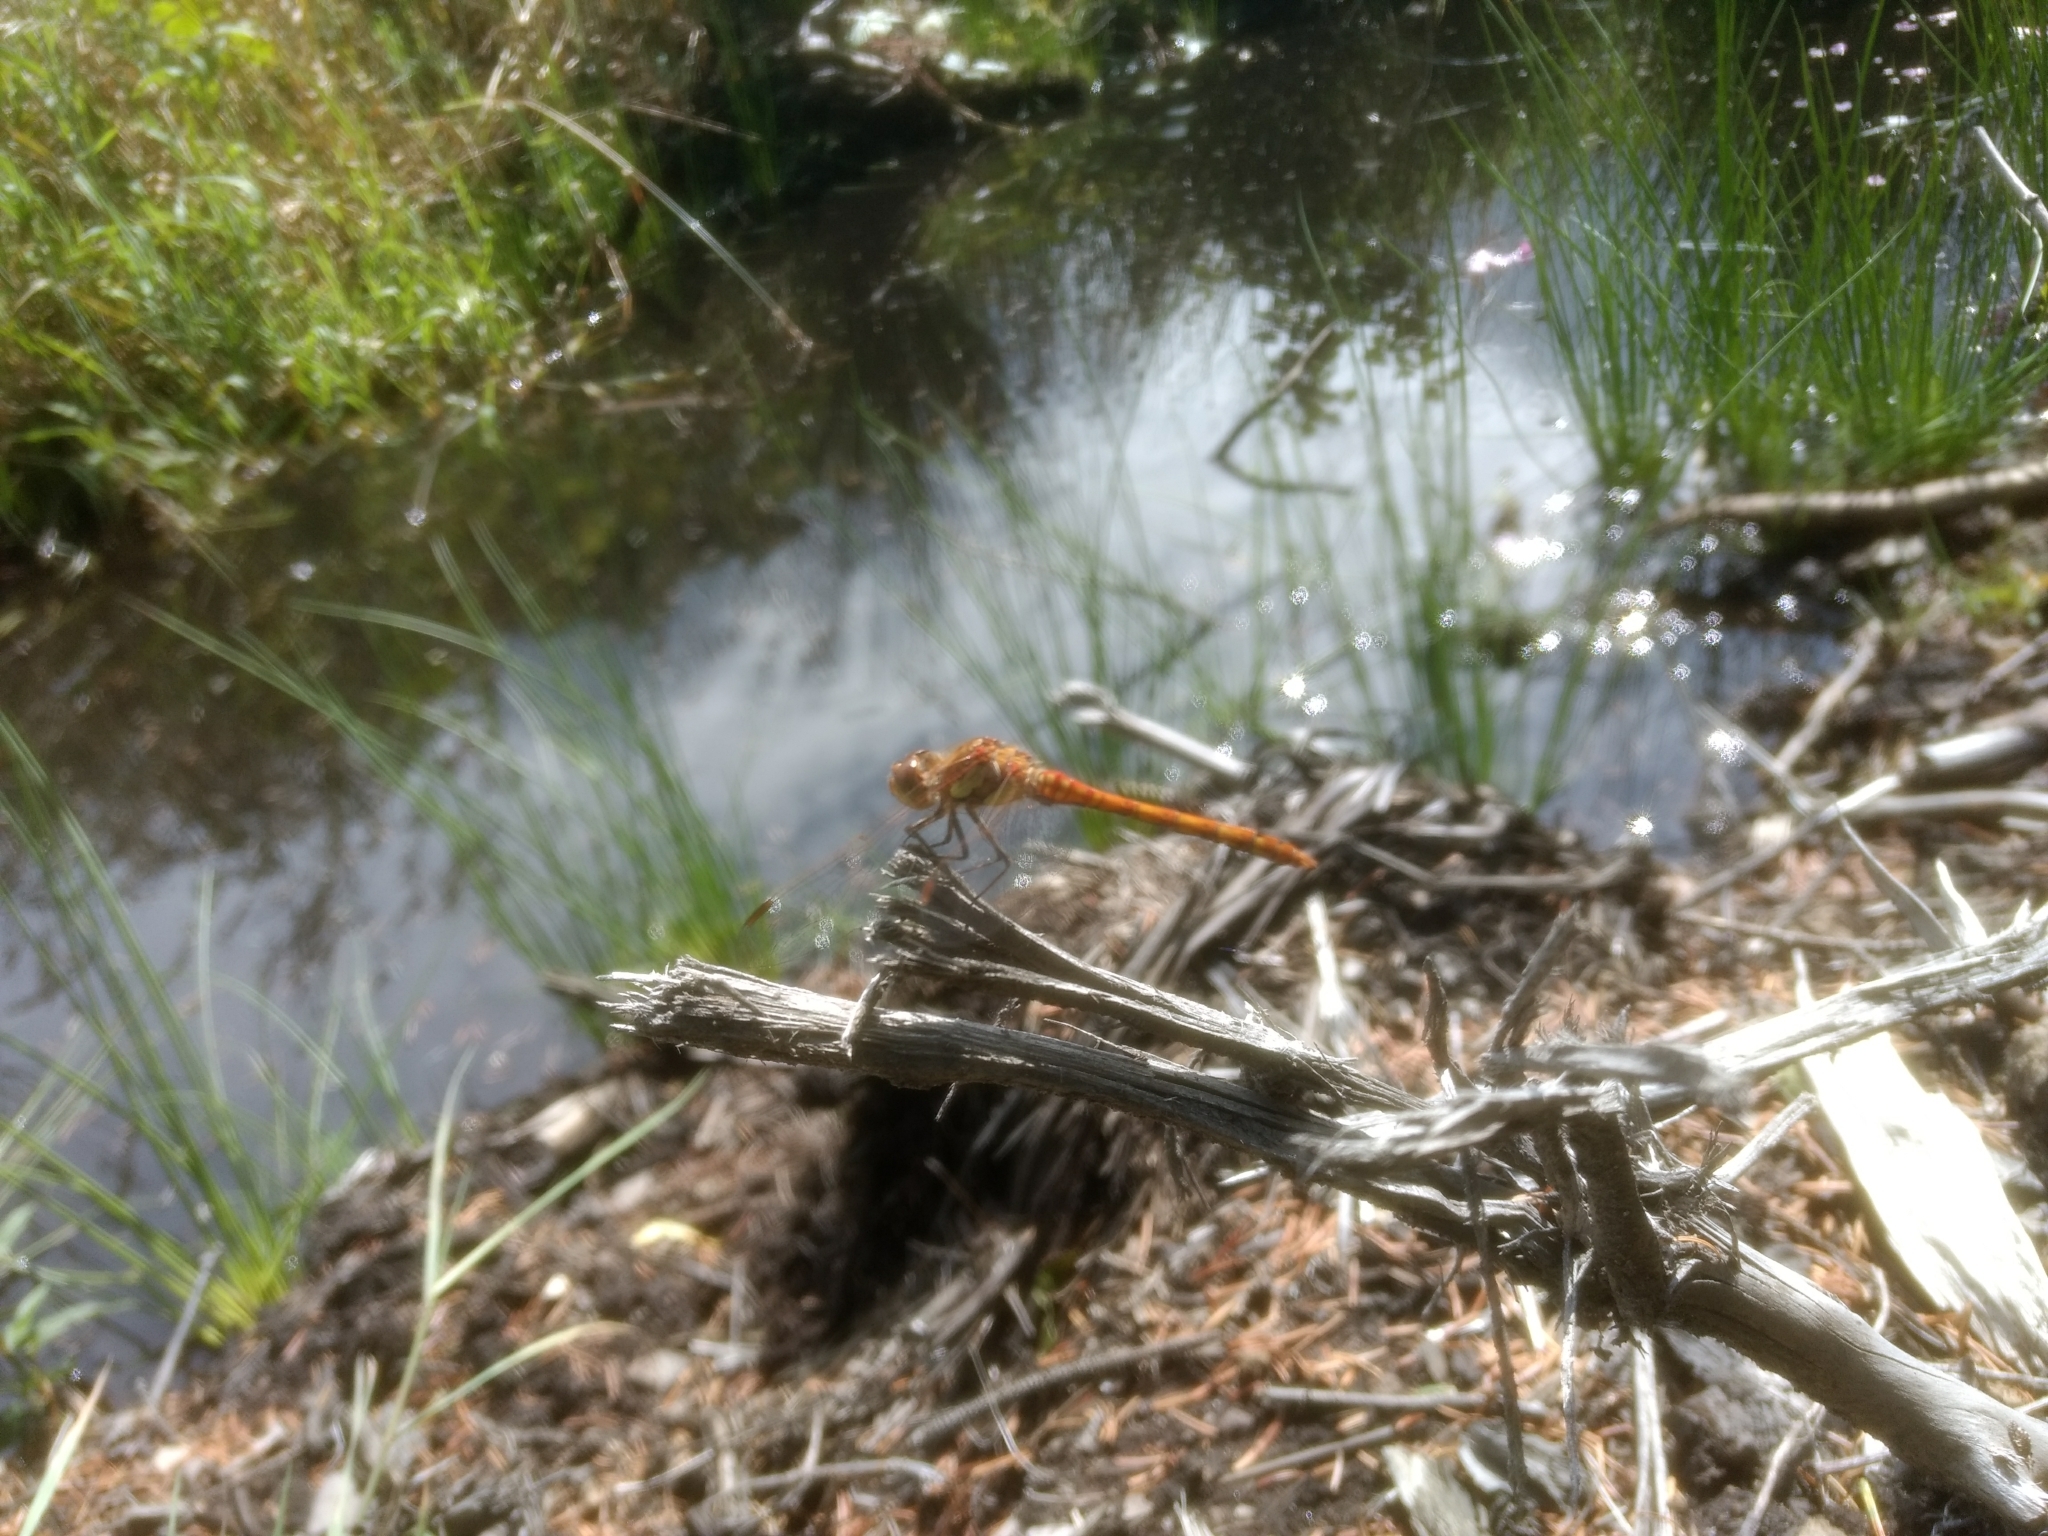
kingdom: Animalia
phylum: Arthropoda
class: Insecta
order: Odonata
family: Libellulidae
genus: Sympetrum
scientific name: Sympetrum striolatum
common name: Common darter
